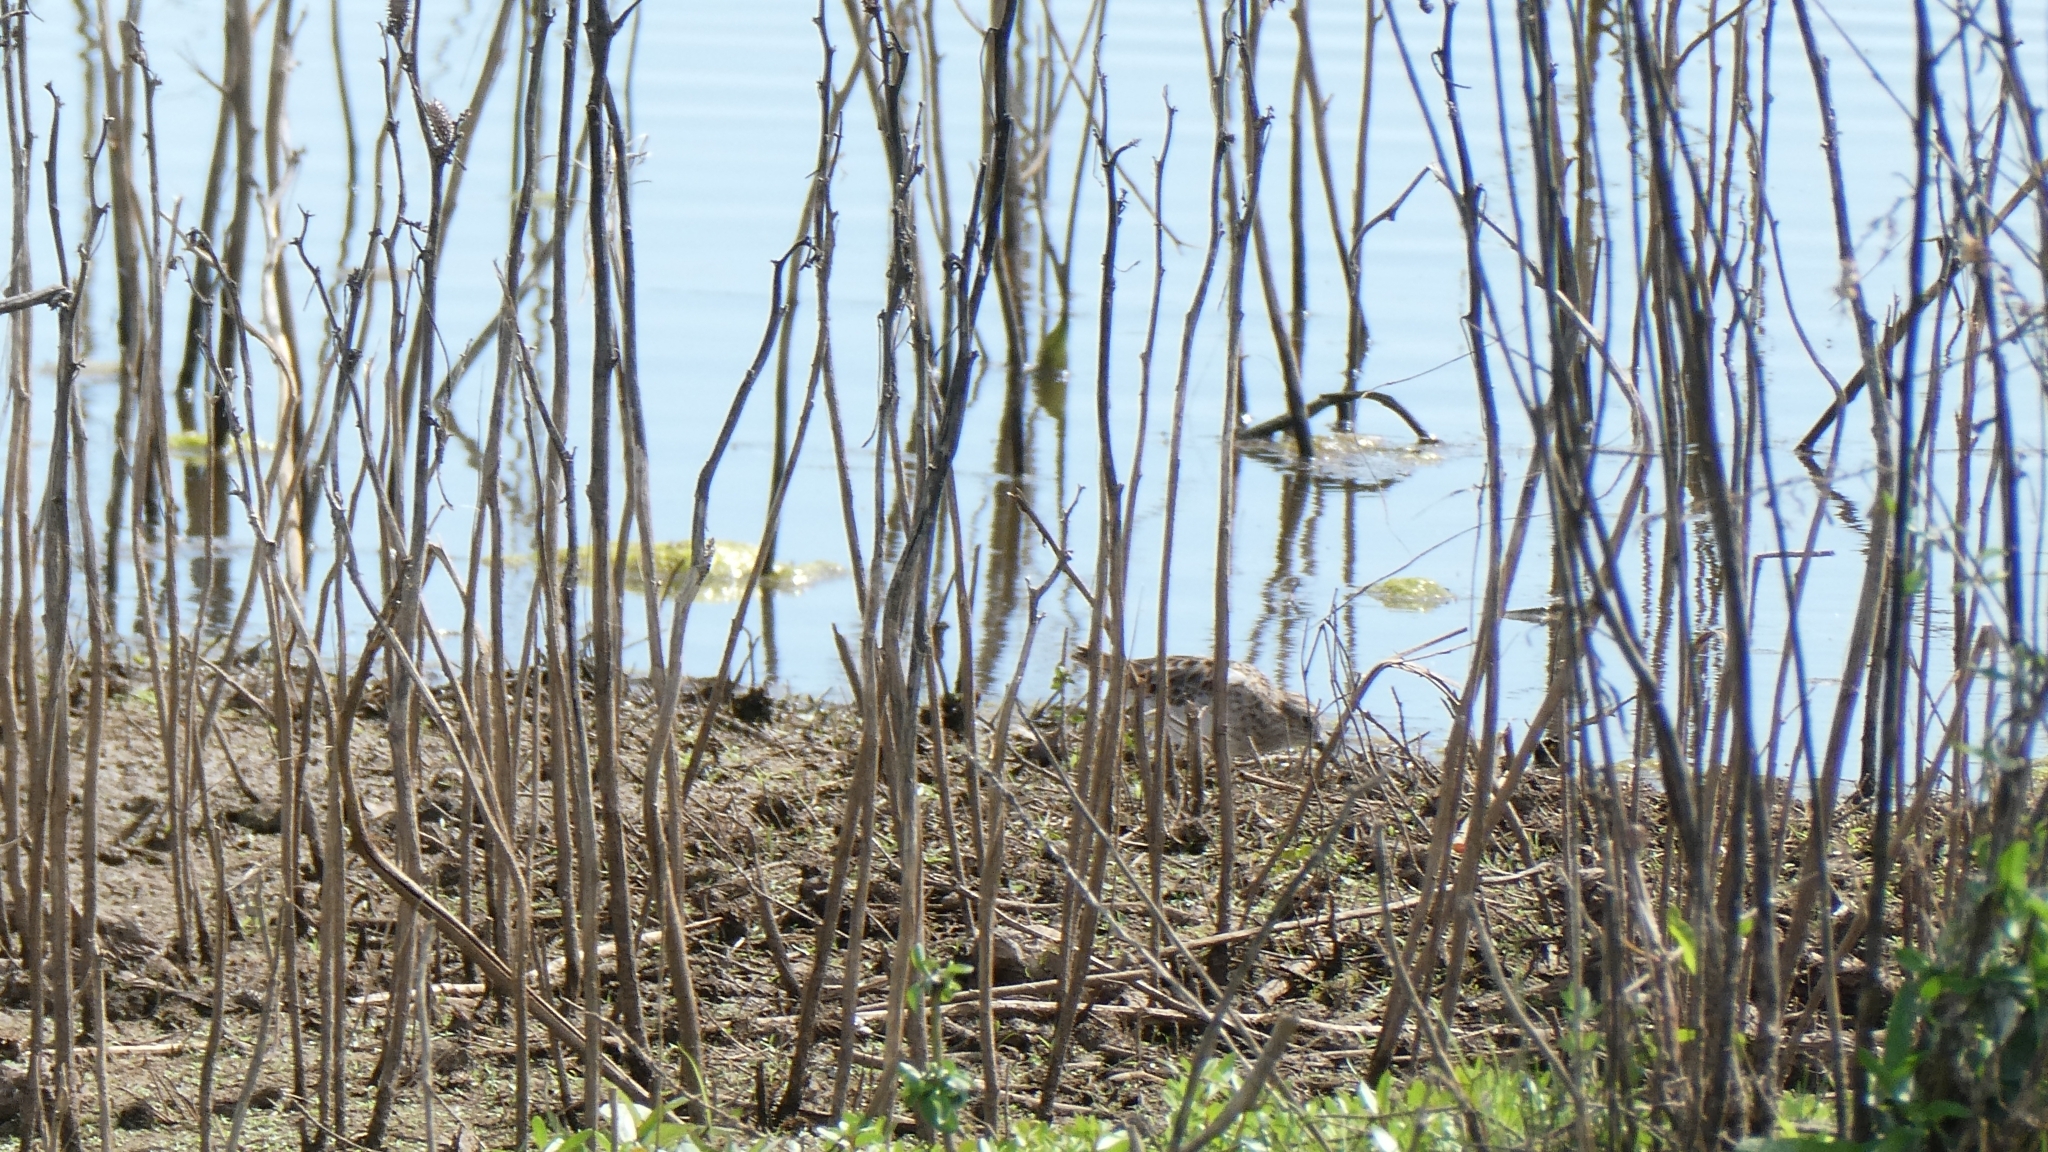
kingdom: Animalia
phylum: Chordata
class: Aves
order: Charadriiformes
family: Scolopacidae
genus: Calidris
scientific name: Calidris minutilla
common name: Least sandpiper
